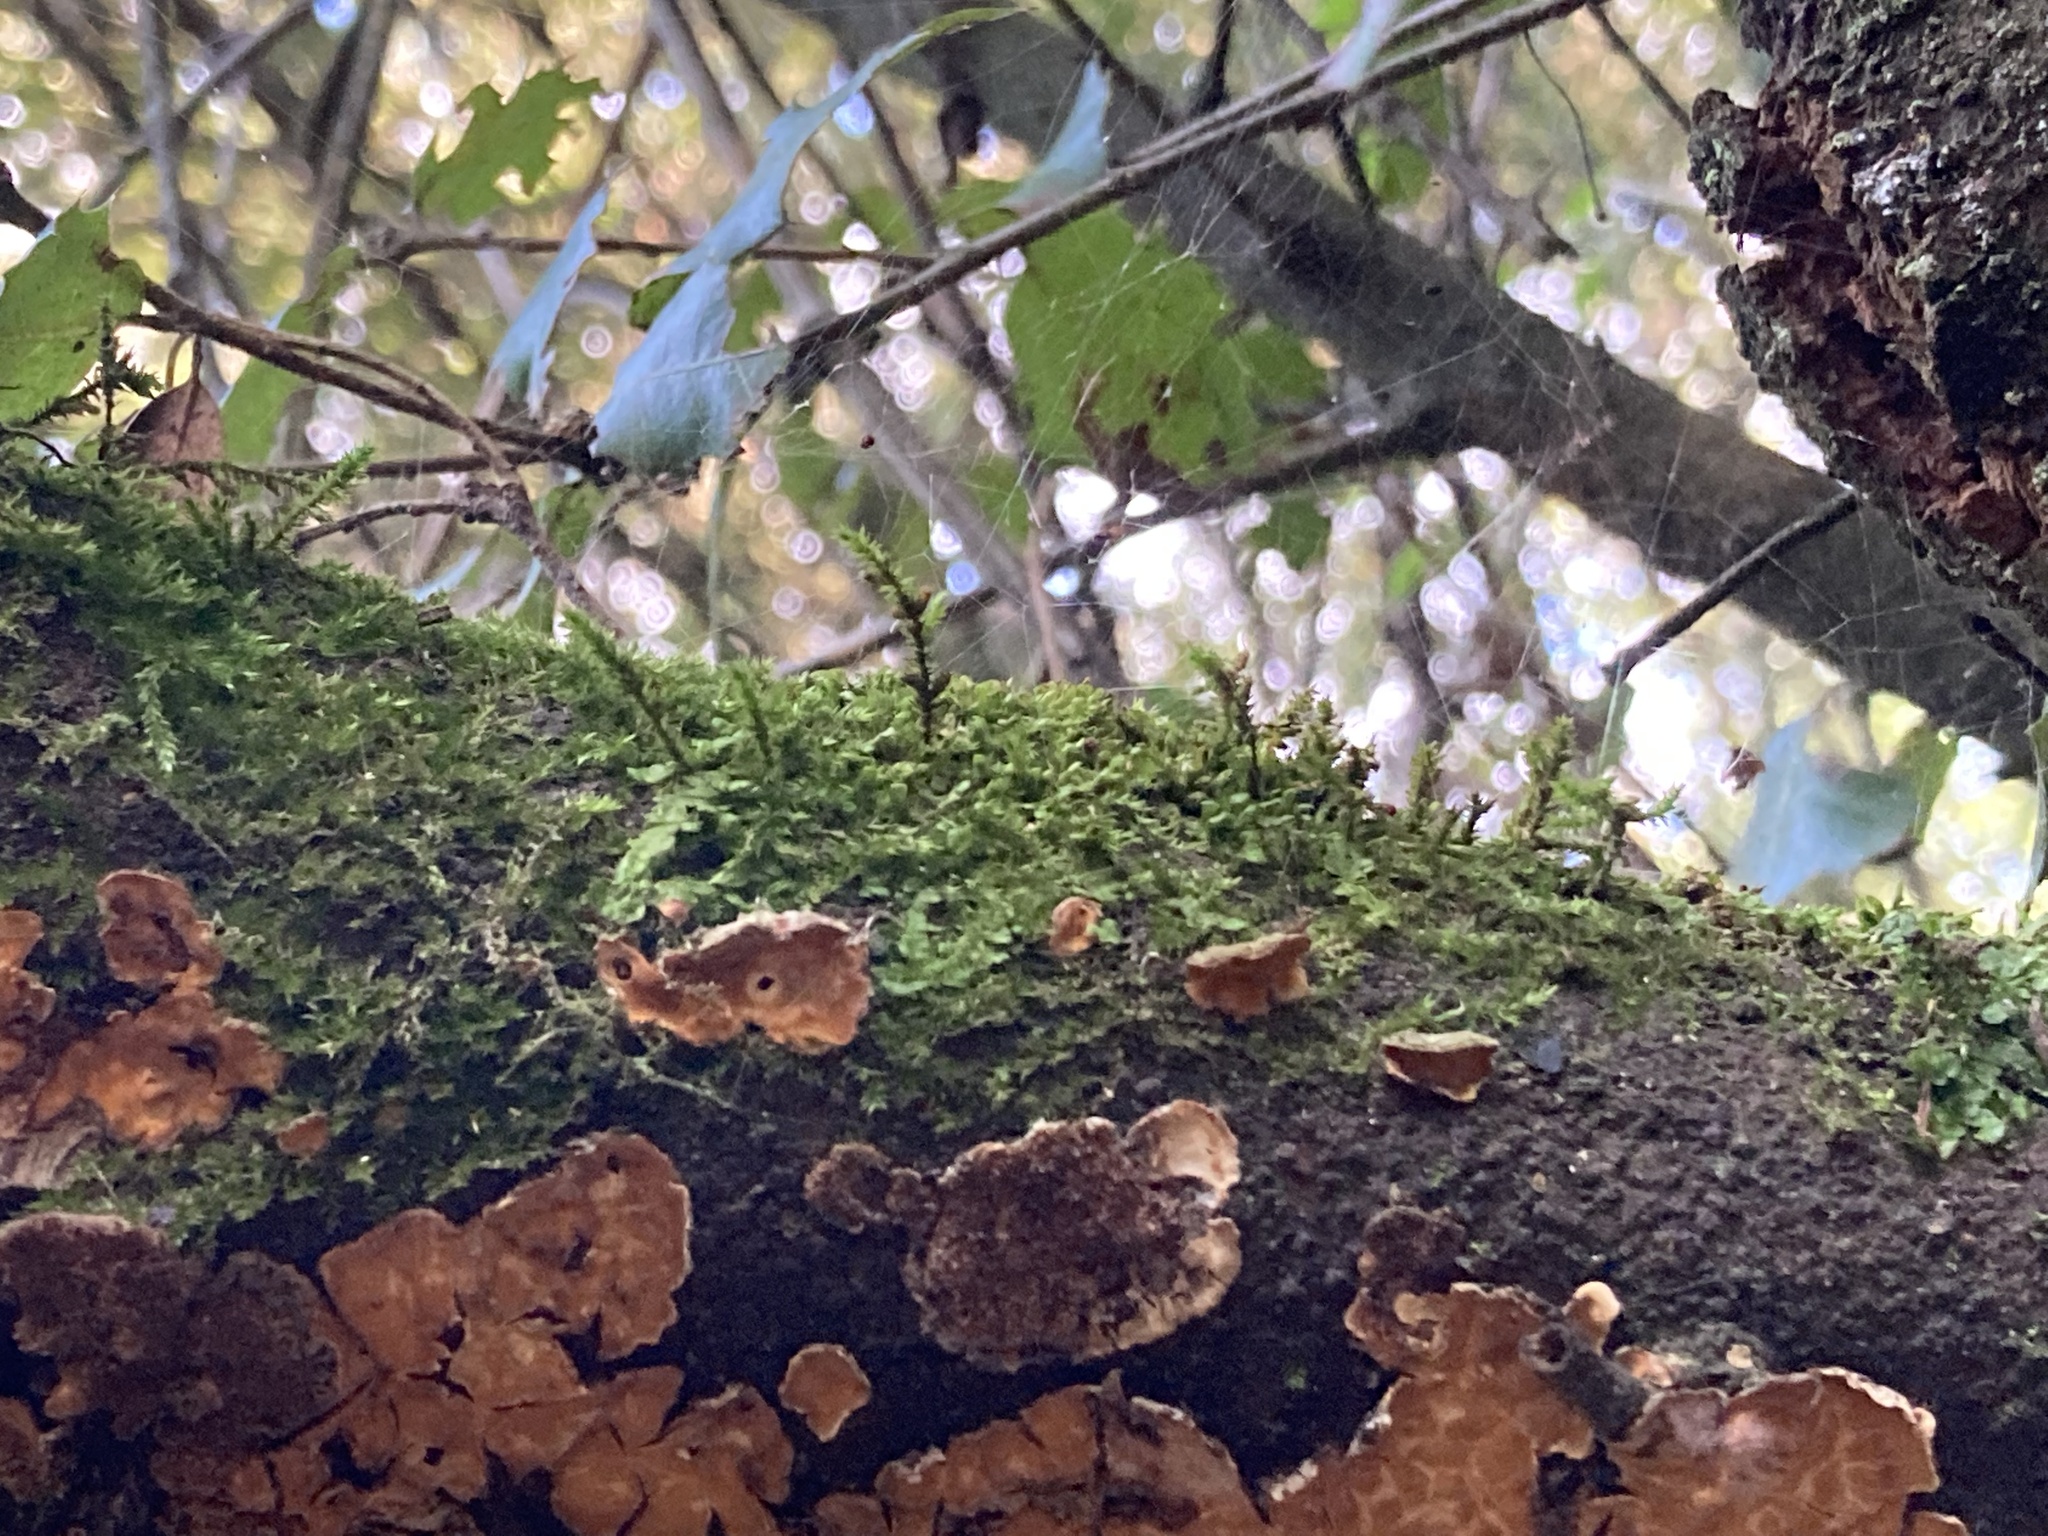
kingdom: Plantae
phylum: Bryophyta
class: Bryopsida
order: Hypnales
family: Cryphaeaceae
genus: Cryphaea
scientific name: Cryphaea heteromalla
